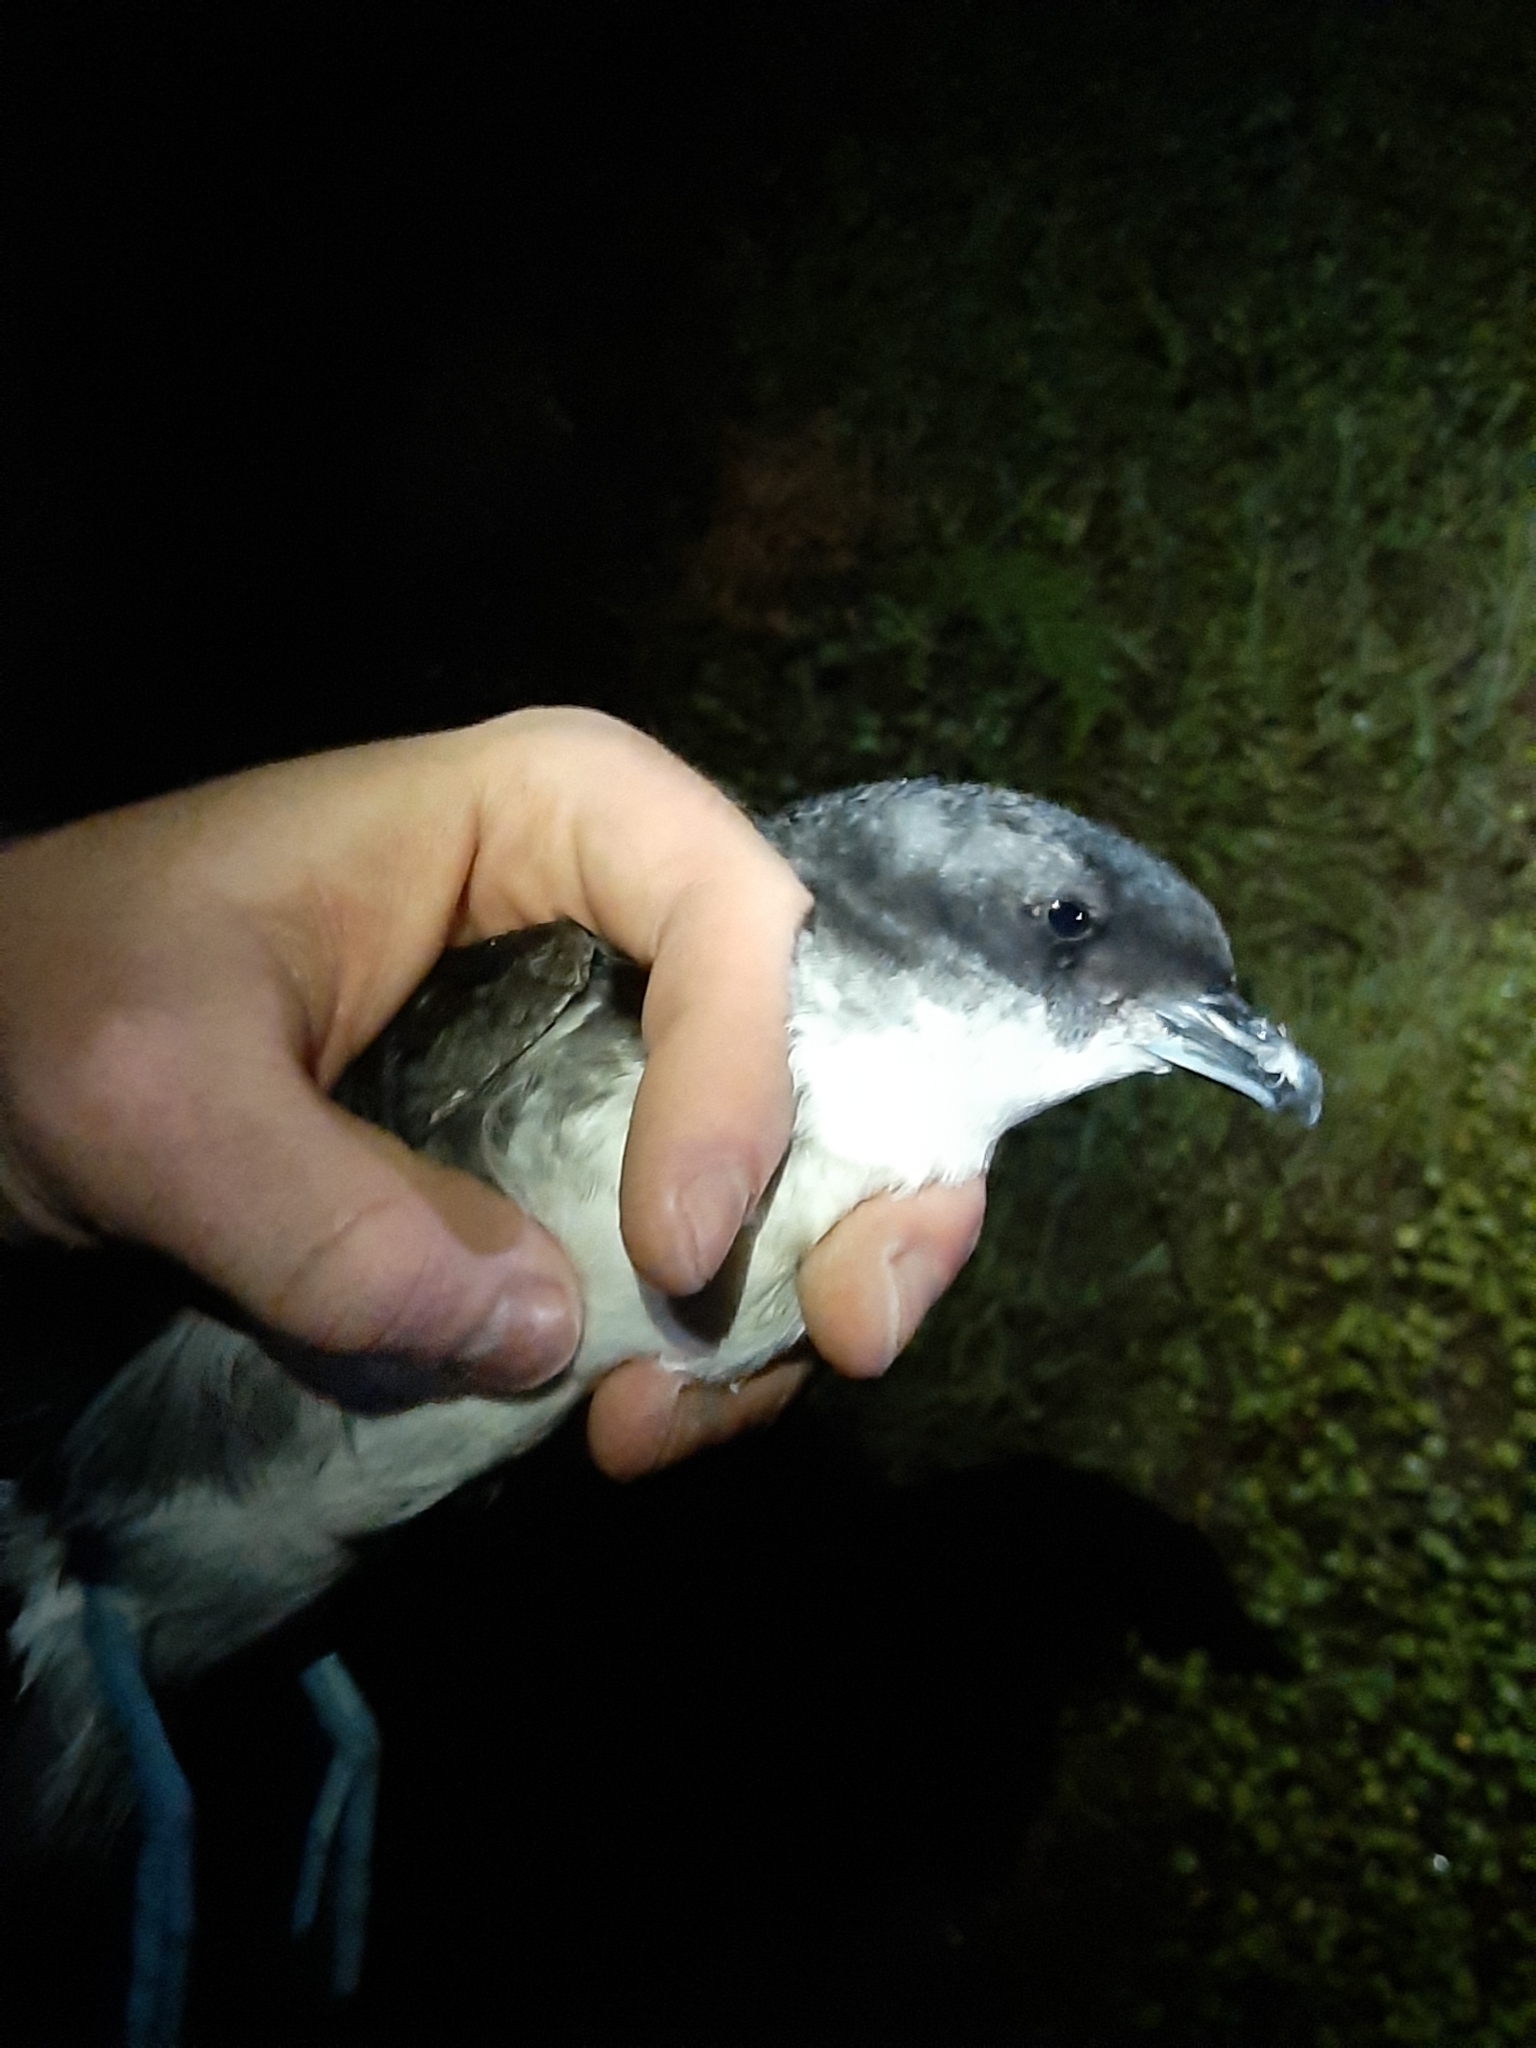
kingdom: Animalia
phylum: Chordata
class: Aves
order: Procellariiformes
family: Pelecanoididae
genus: Pelecanoides
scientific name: Pelecanoides urinatrix
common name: Common diving-petrel
